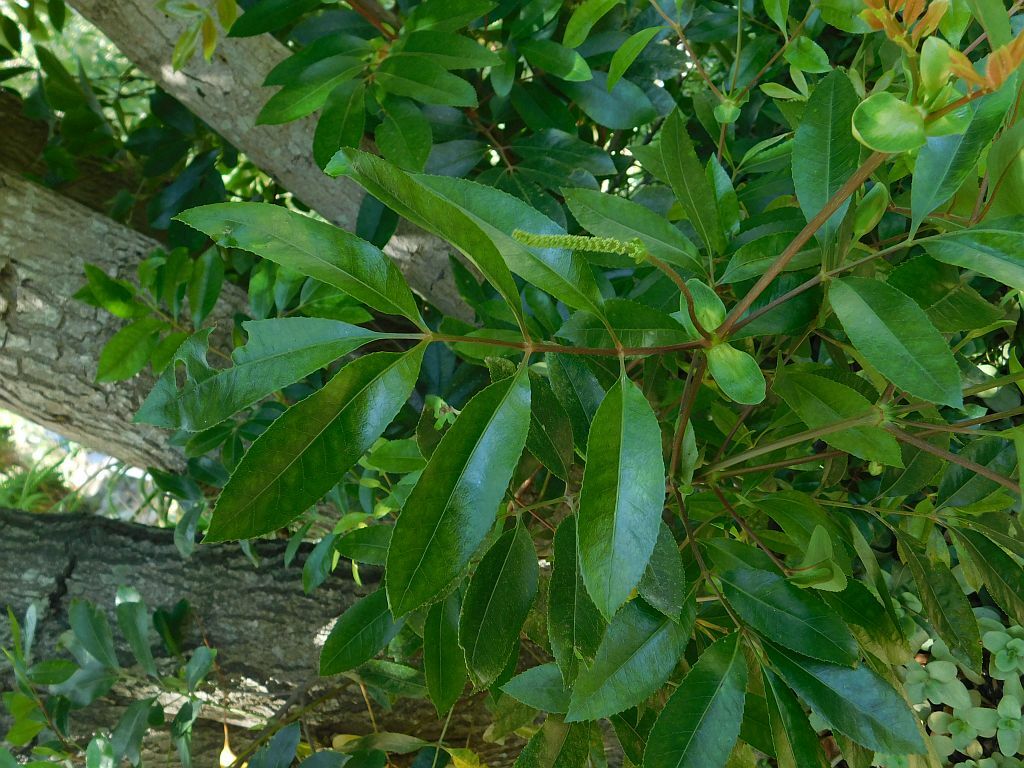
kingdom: Plantae
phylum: Tracheophyta
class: Magnoliopsida
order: Oxalidales
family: Cunoniaceae
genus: Cunonia
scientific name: Cunonia capensis
